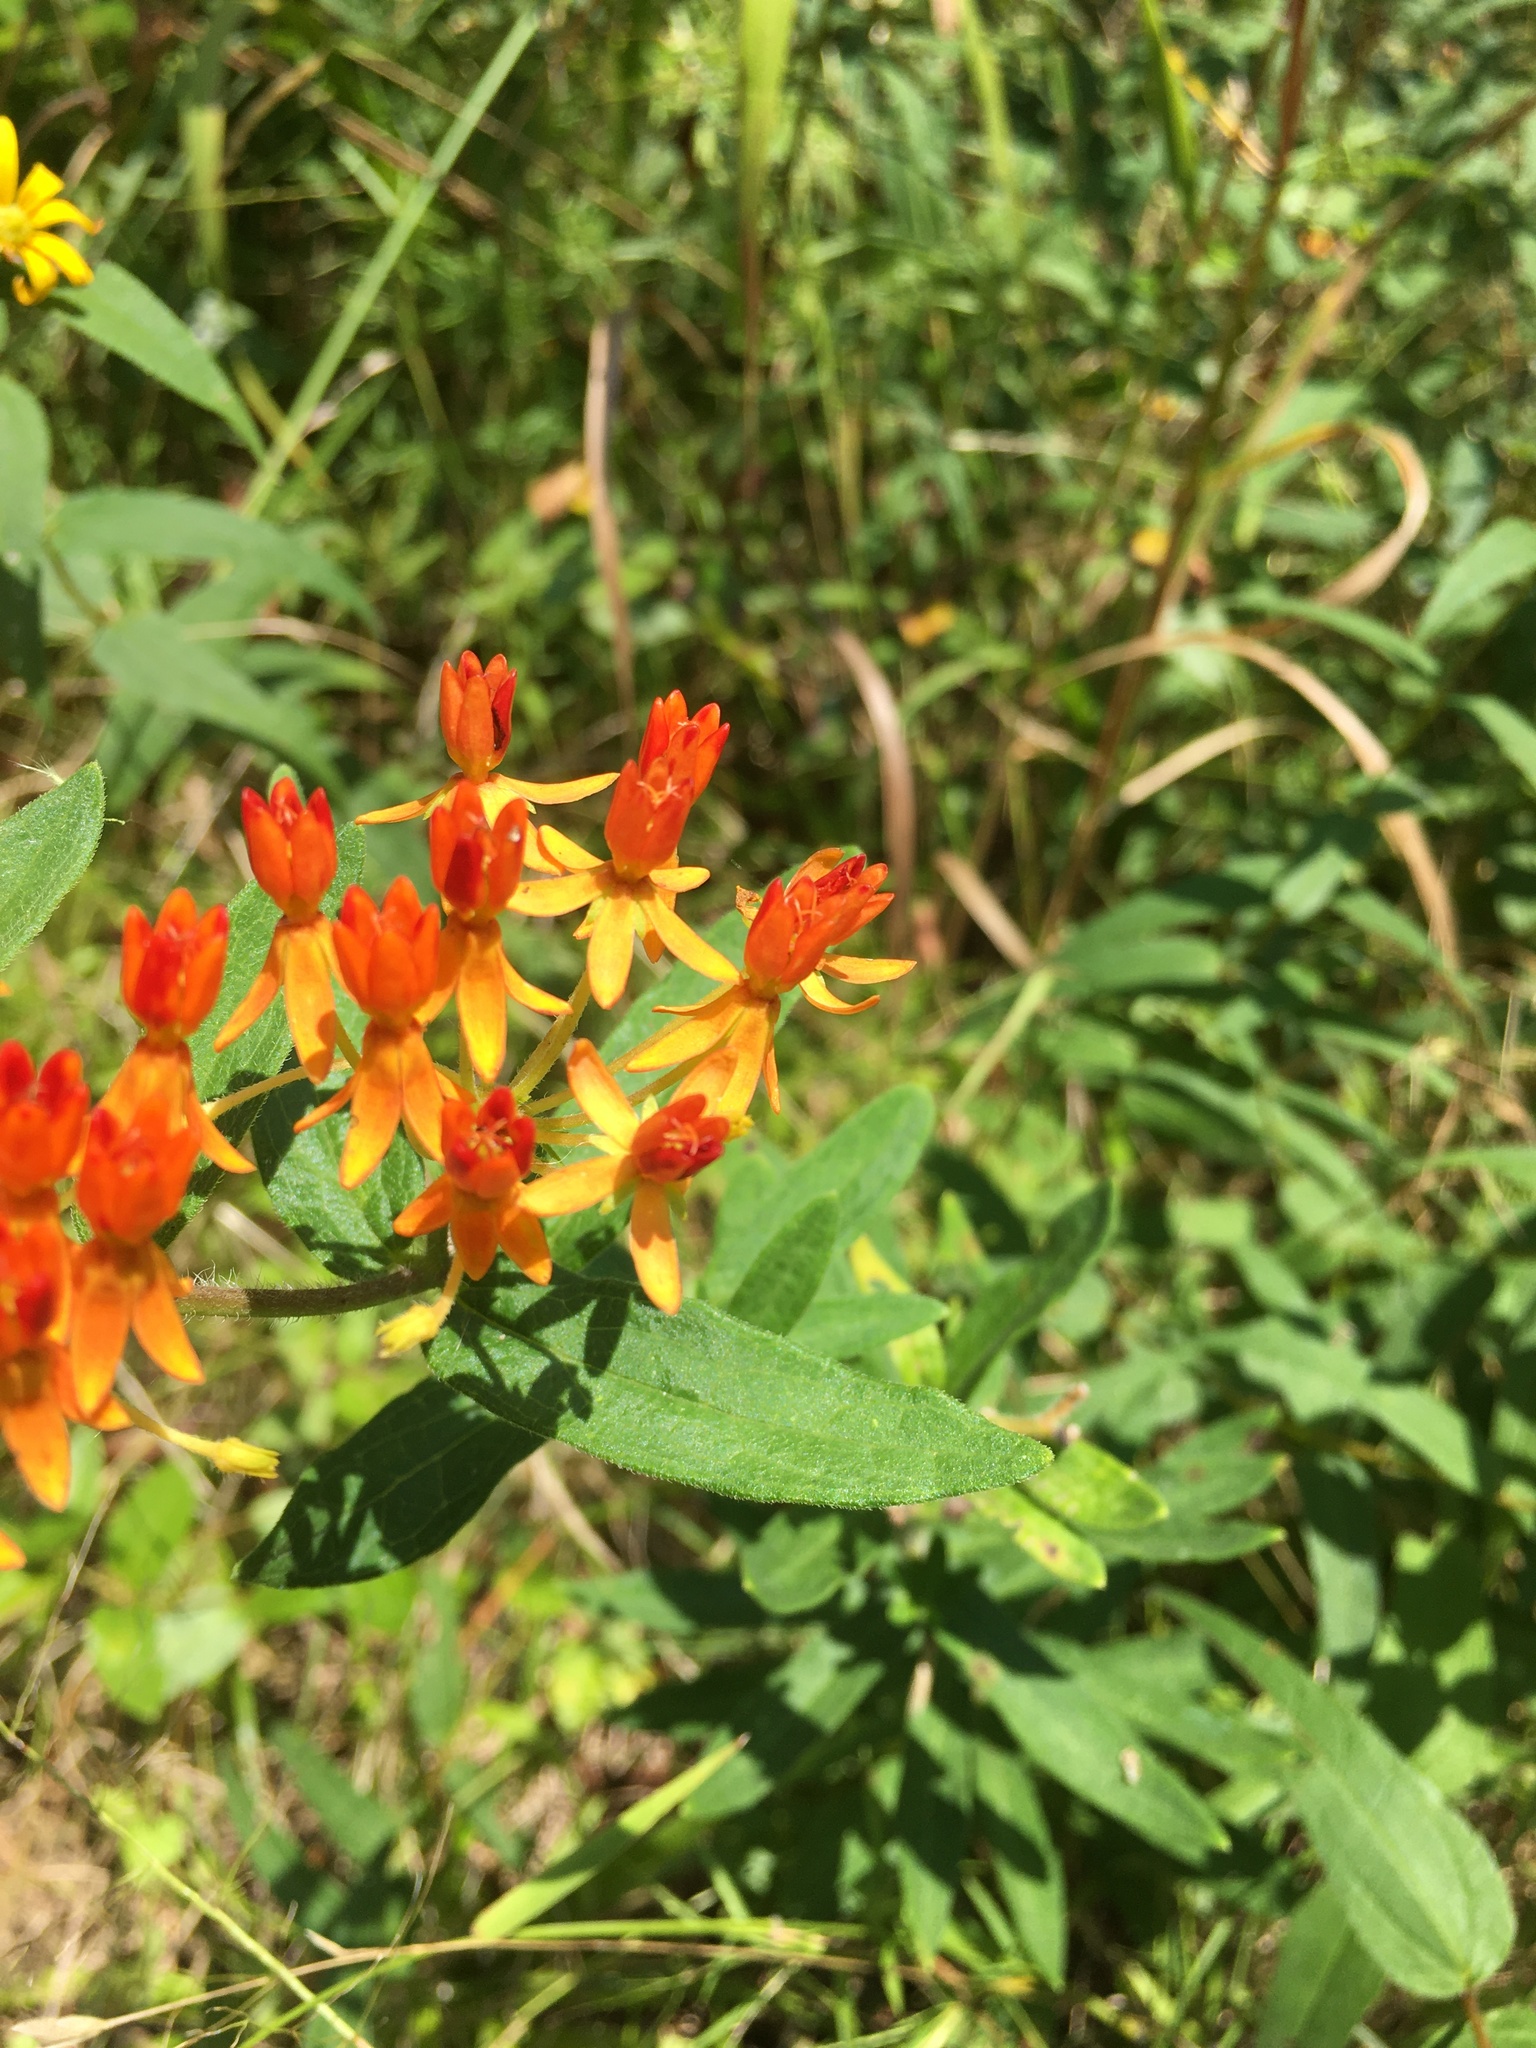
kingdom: Plantae
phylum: Tracheophyta
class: Magnoliopsida
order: Gentianales
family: Apocynaceae
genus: Asclepias
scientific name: Asclepias tuberosa
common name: Butterfly milkweed
